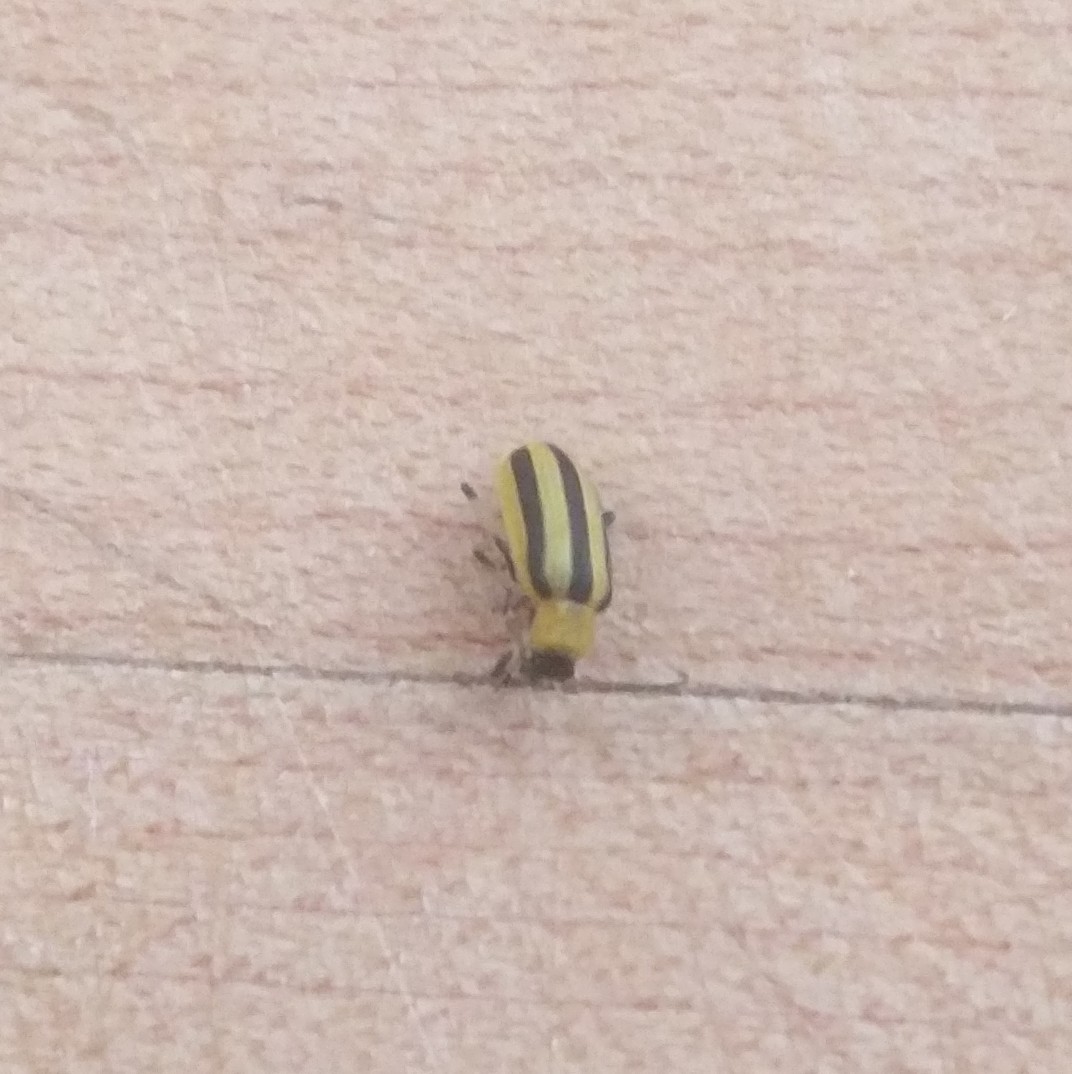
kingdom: Animalia
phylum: Arthropoda
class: Insecta
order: Coleoptera
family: Chrysomelidae
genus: Acalymma
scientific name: Acalymma vittatum
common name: Striped cucumber beetle
